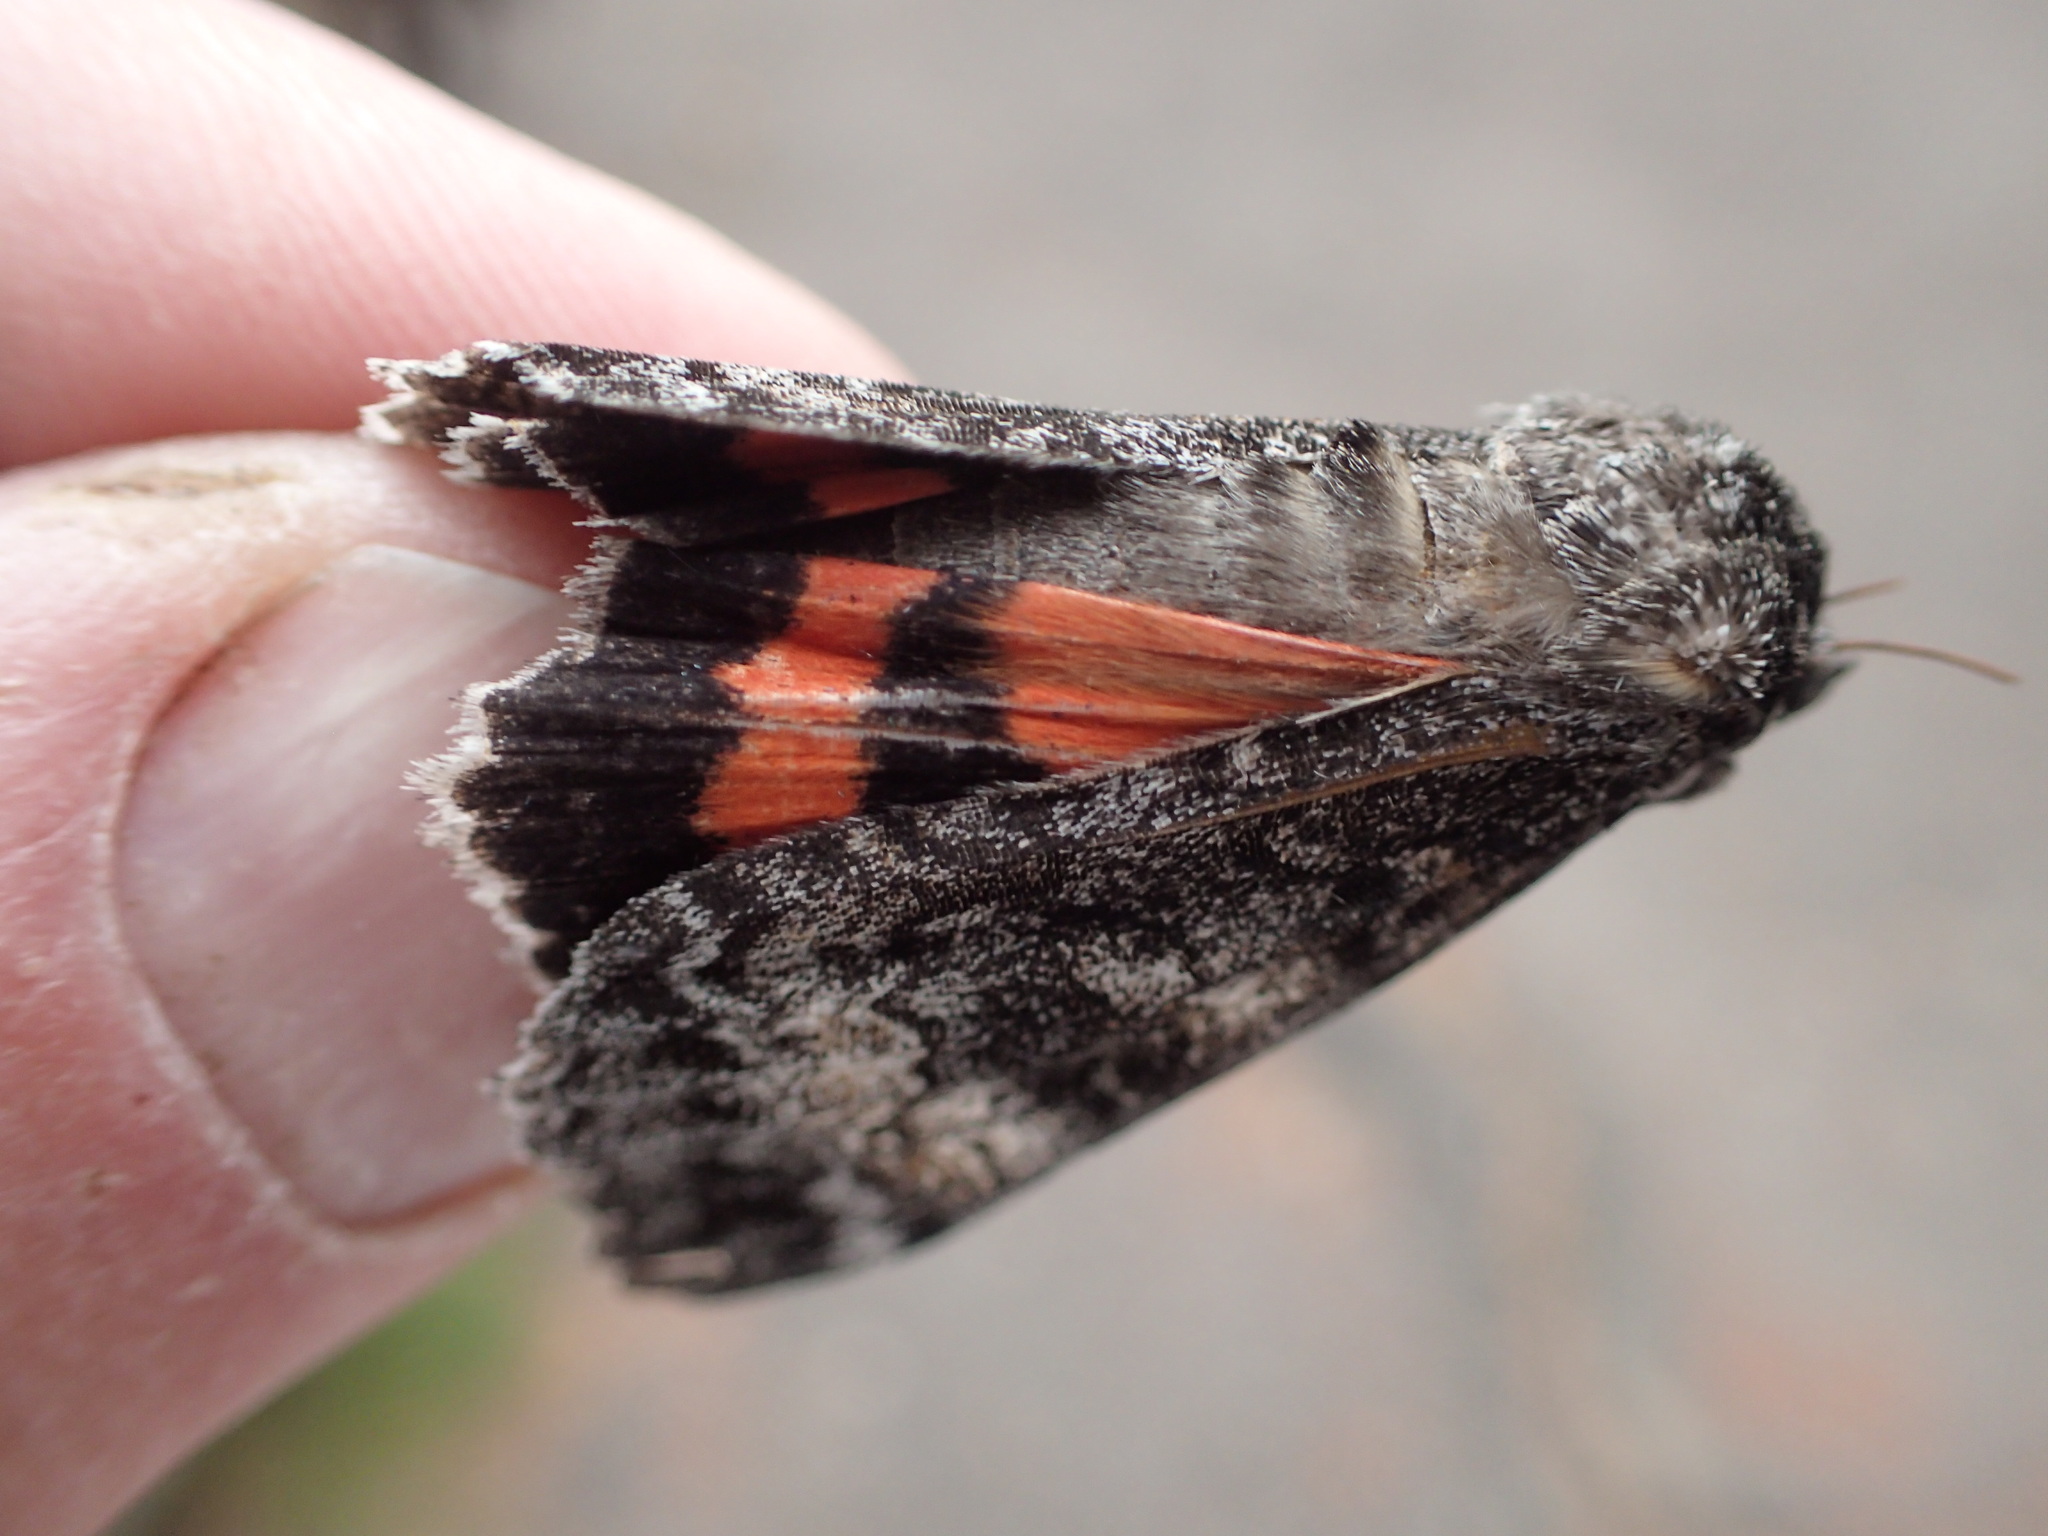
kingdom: Animalia
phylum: Arthropoda
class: Insecta
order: Lepidoptera
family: Erebidae
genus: Catocala
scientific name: Catocala briseis
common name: Briseis underwing
